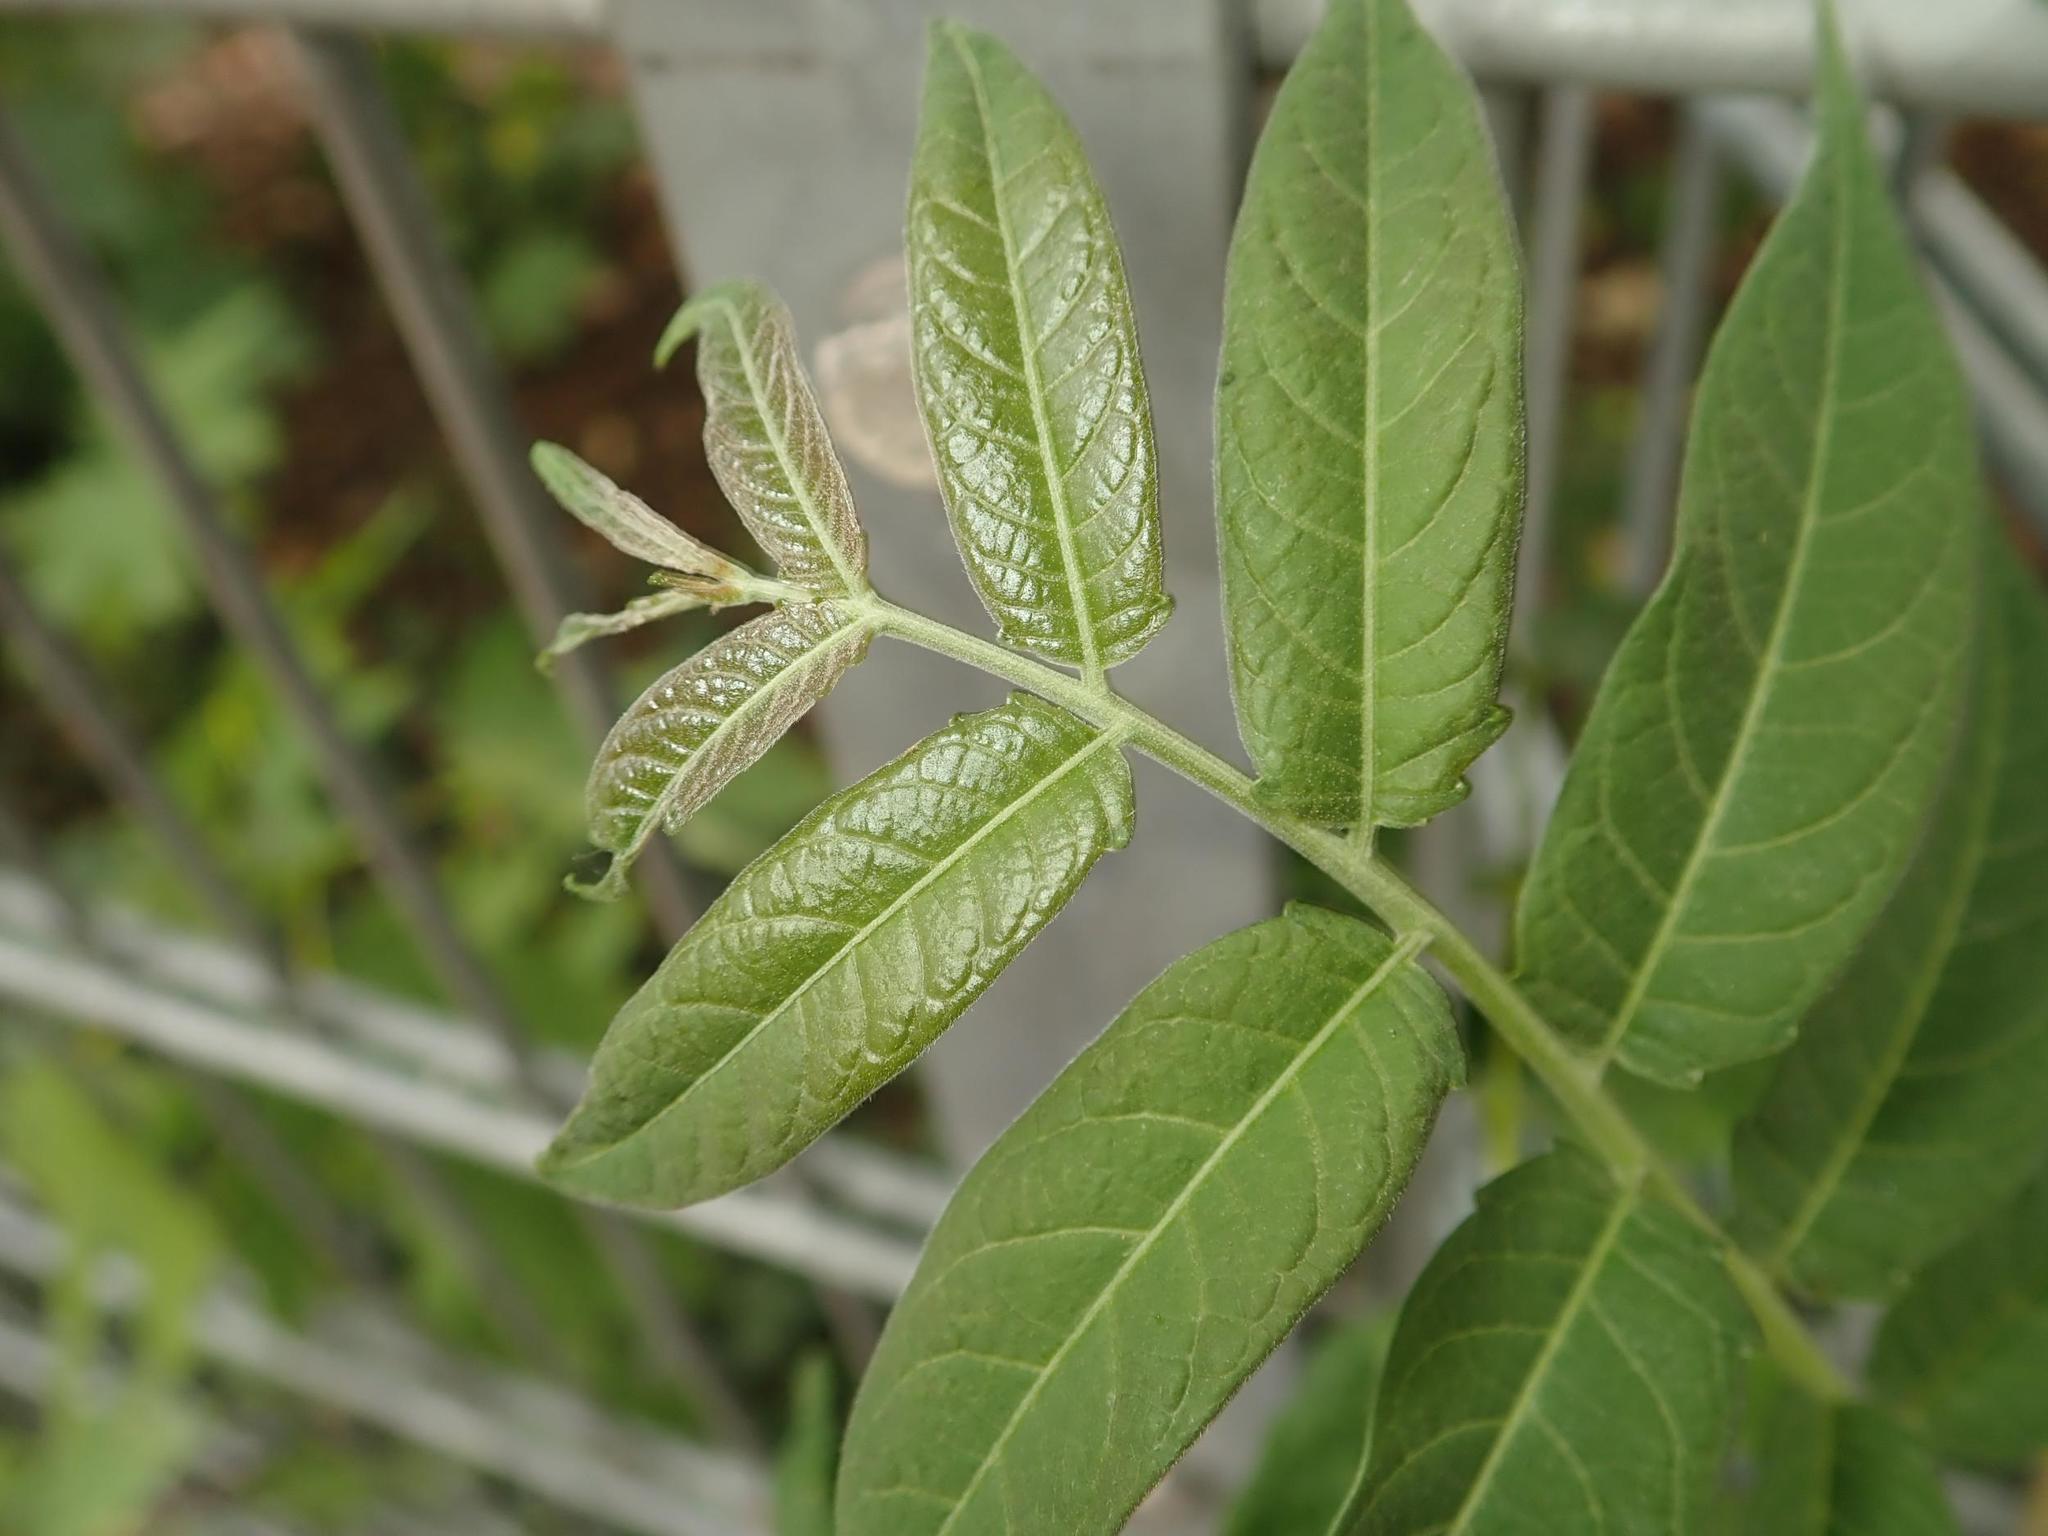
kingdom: Plantae
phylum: Tracheophyta
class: Magnoliopsida
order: Sapindales
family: Simaroubaceae
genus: Ailanthus
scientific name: Ailanthus altissima
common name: Tree-of-heaven
